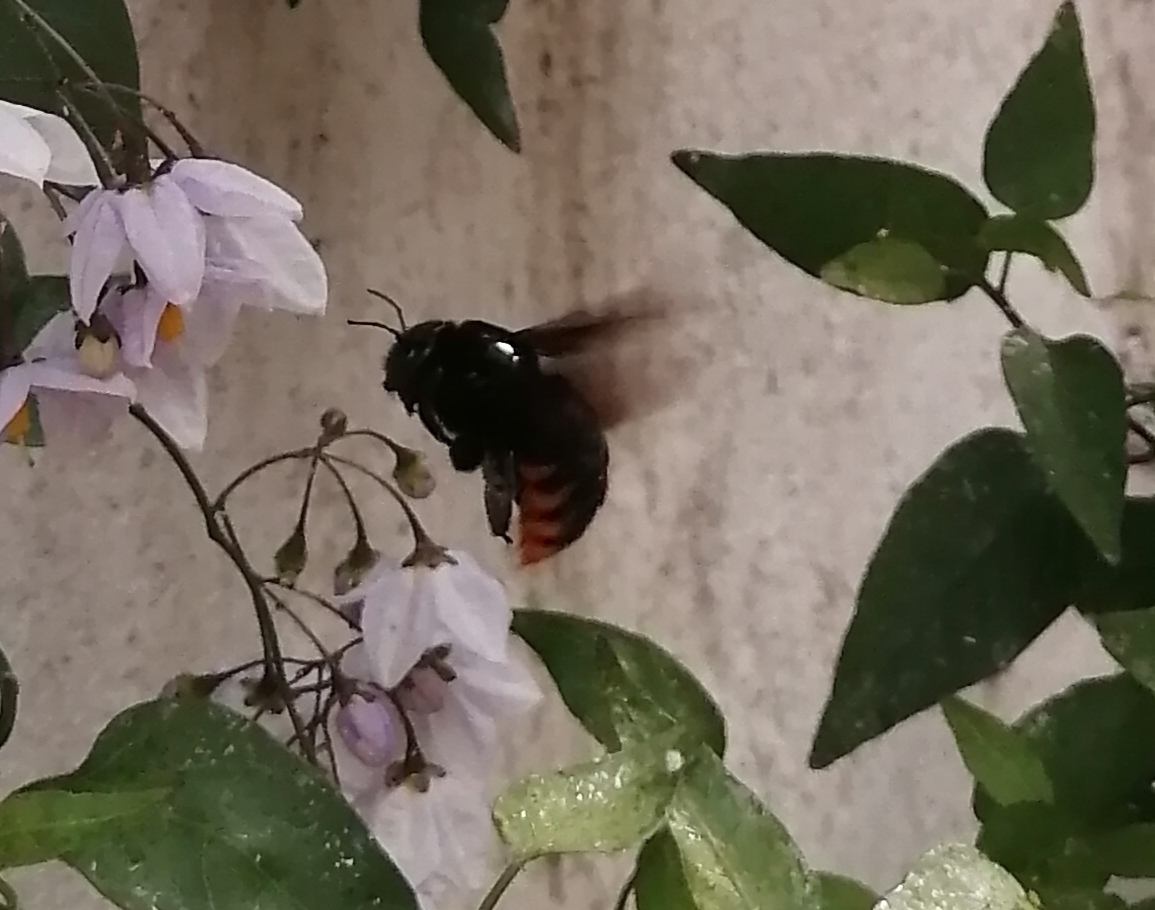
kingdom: Animalia
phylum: Arthropoda
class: Insecta
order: Hymenoptera
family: Apidae
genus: Xylocopa
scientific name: Xylocopa augusti
